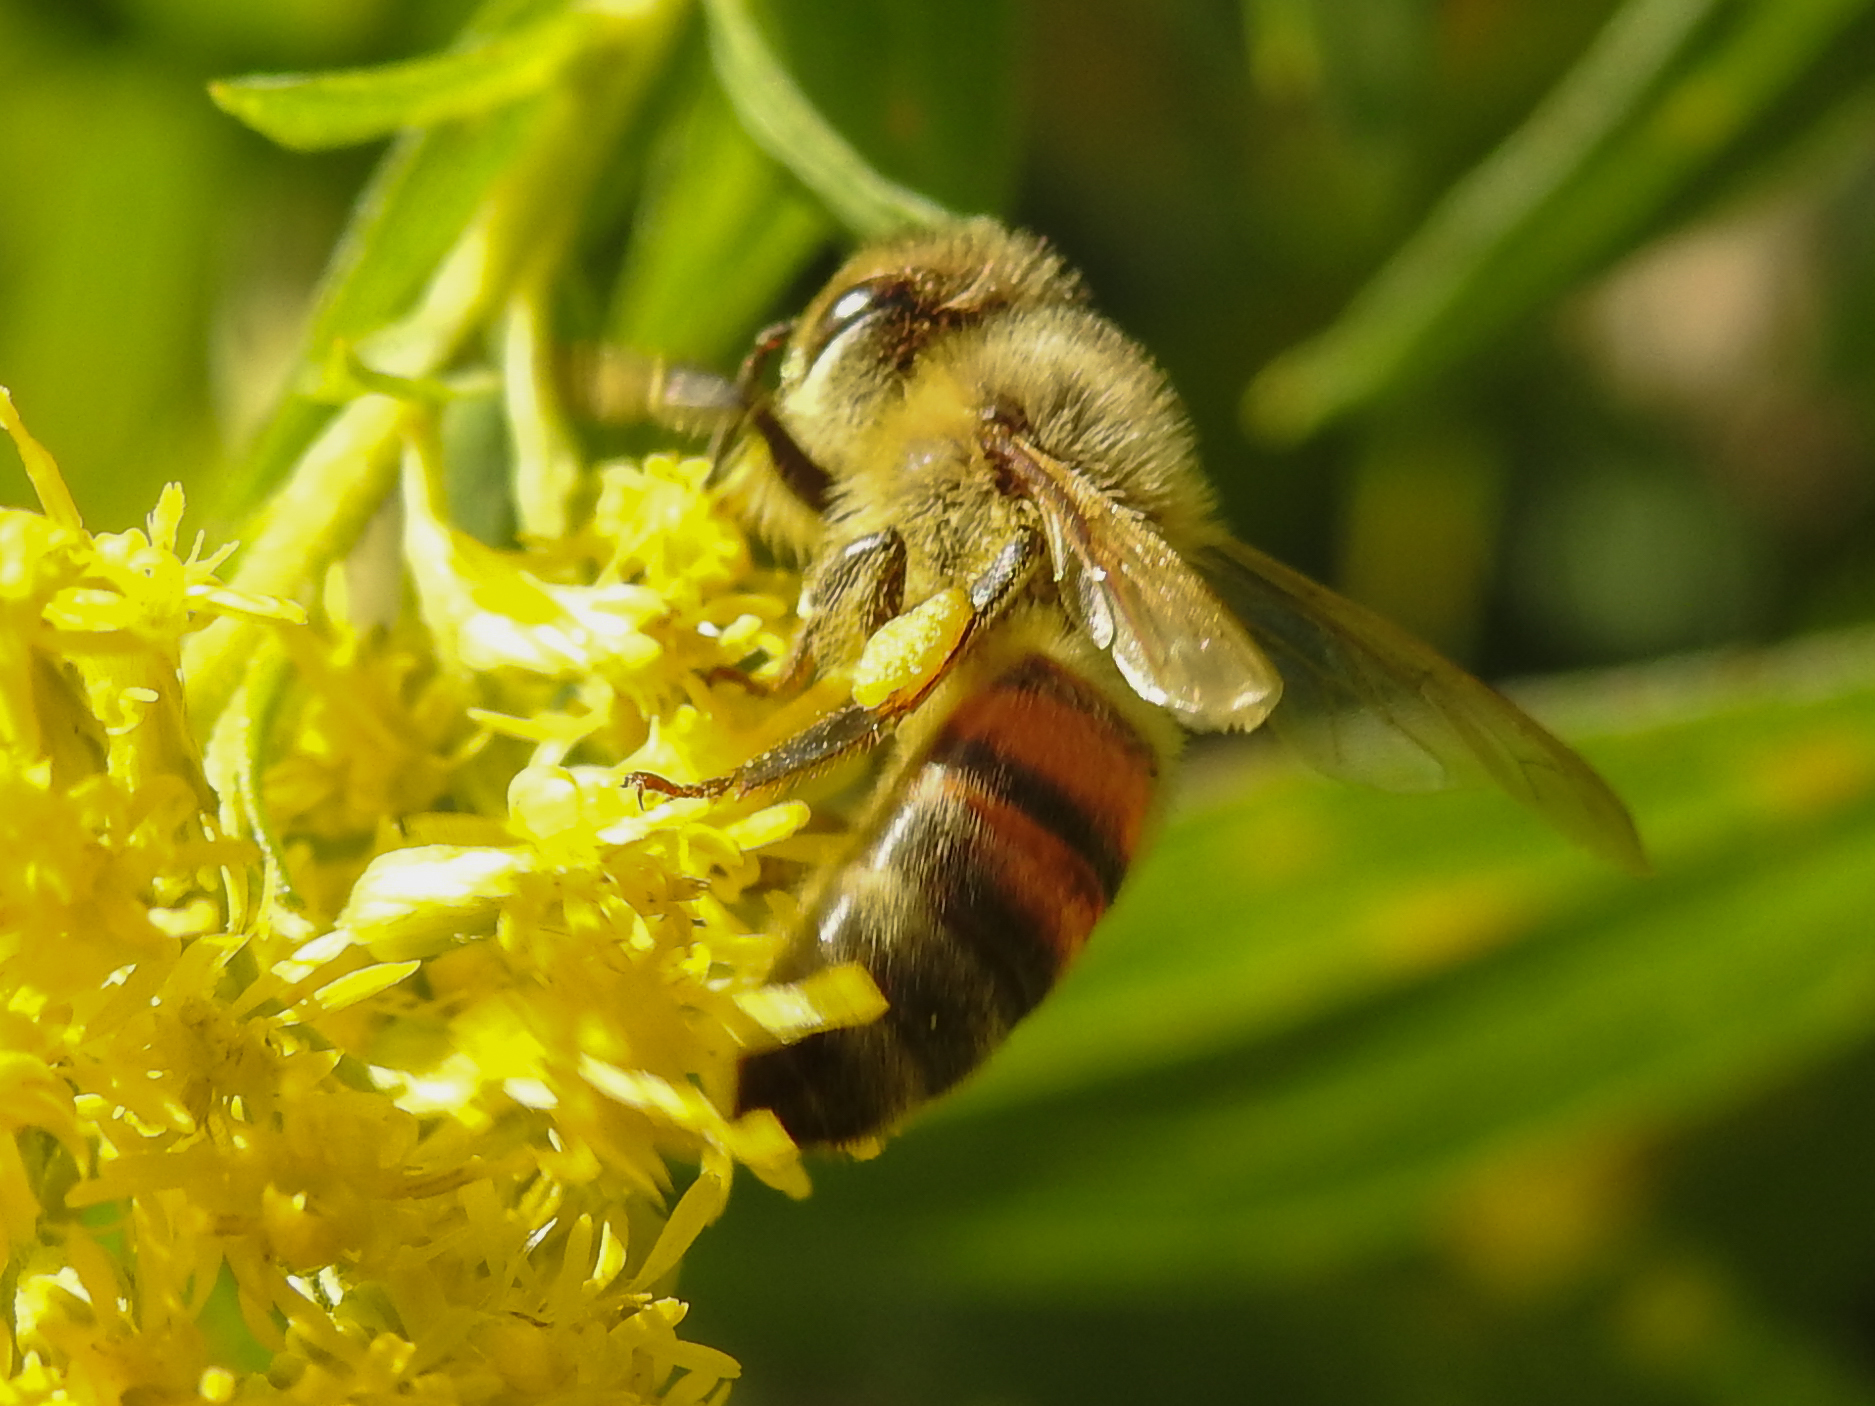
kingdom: Animalia
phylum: Arthropoda
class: Insecta
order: Hymenoptera
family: Apidae
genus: Apis
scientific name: Apis mellifera
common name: Honey bee
